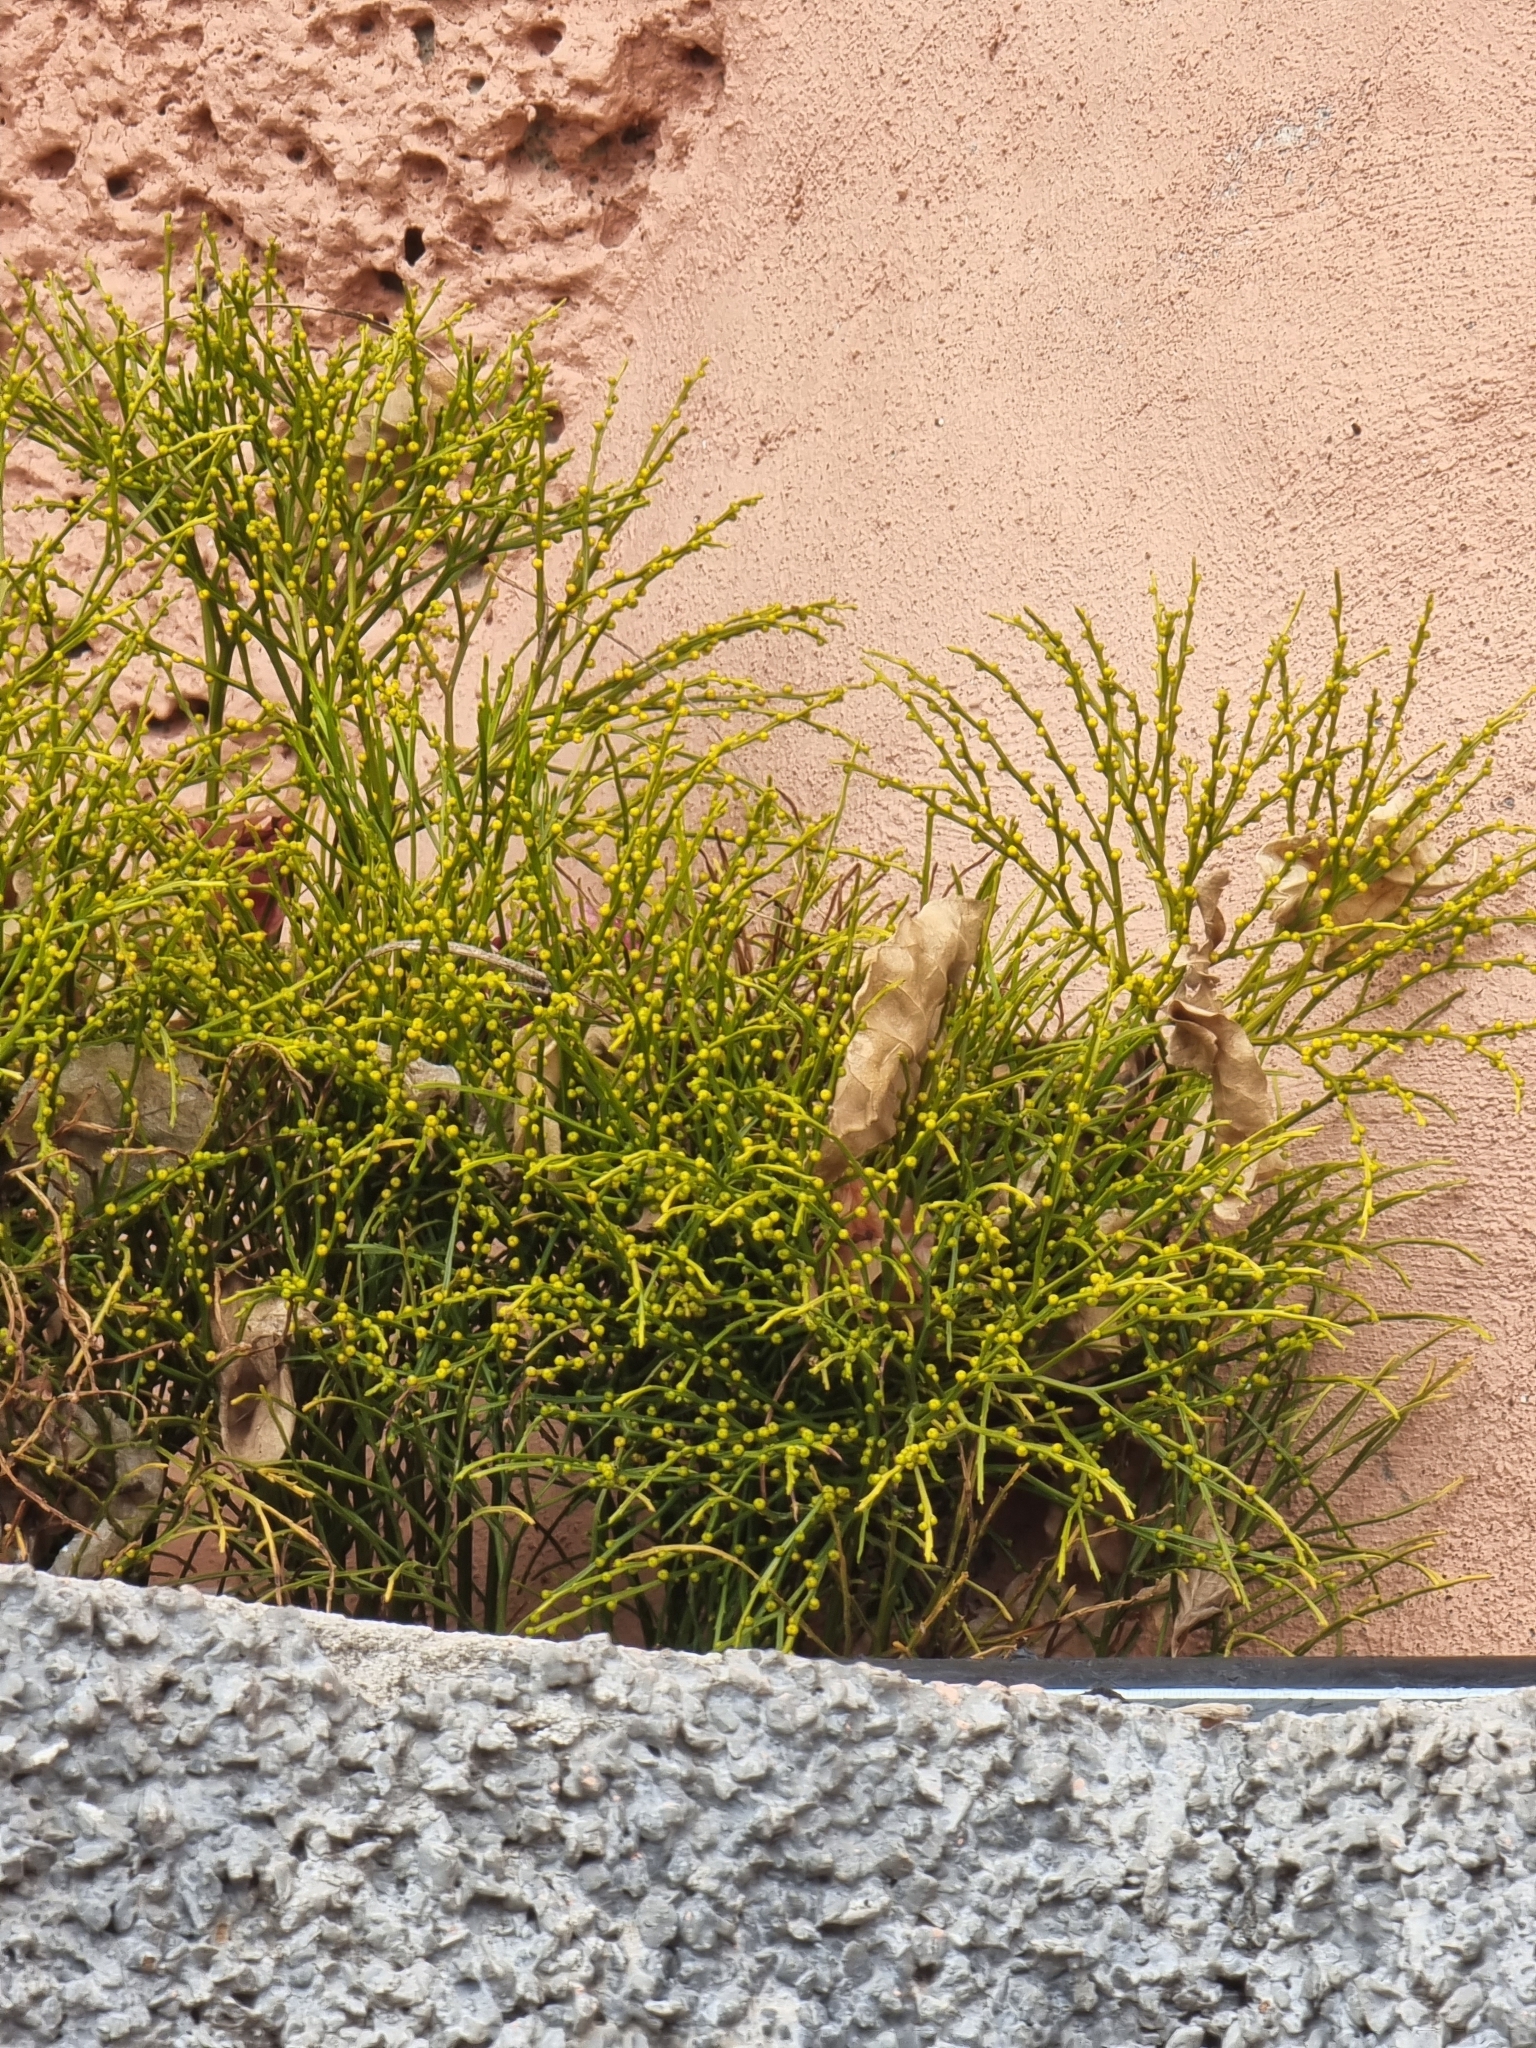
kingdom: Plantae
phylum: Tracheophyta
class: Polypodiopsida
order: Psilotales
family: Psilotaceae
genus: Psilotum
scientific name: Psilotum nudum
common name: Skeleton fork fern
